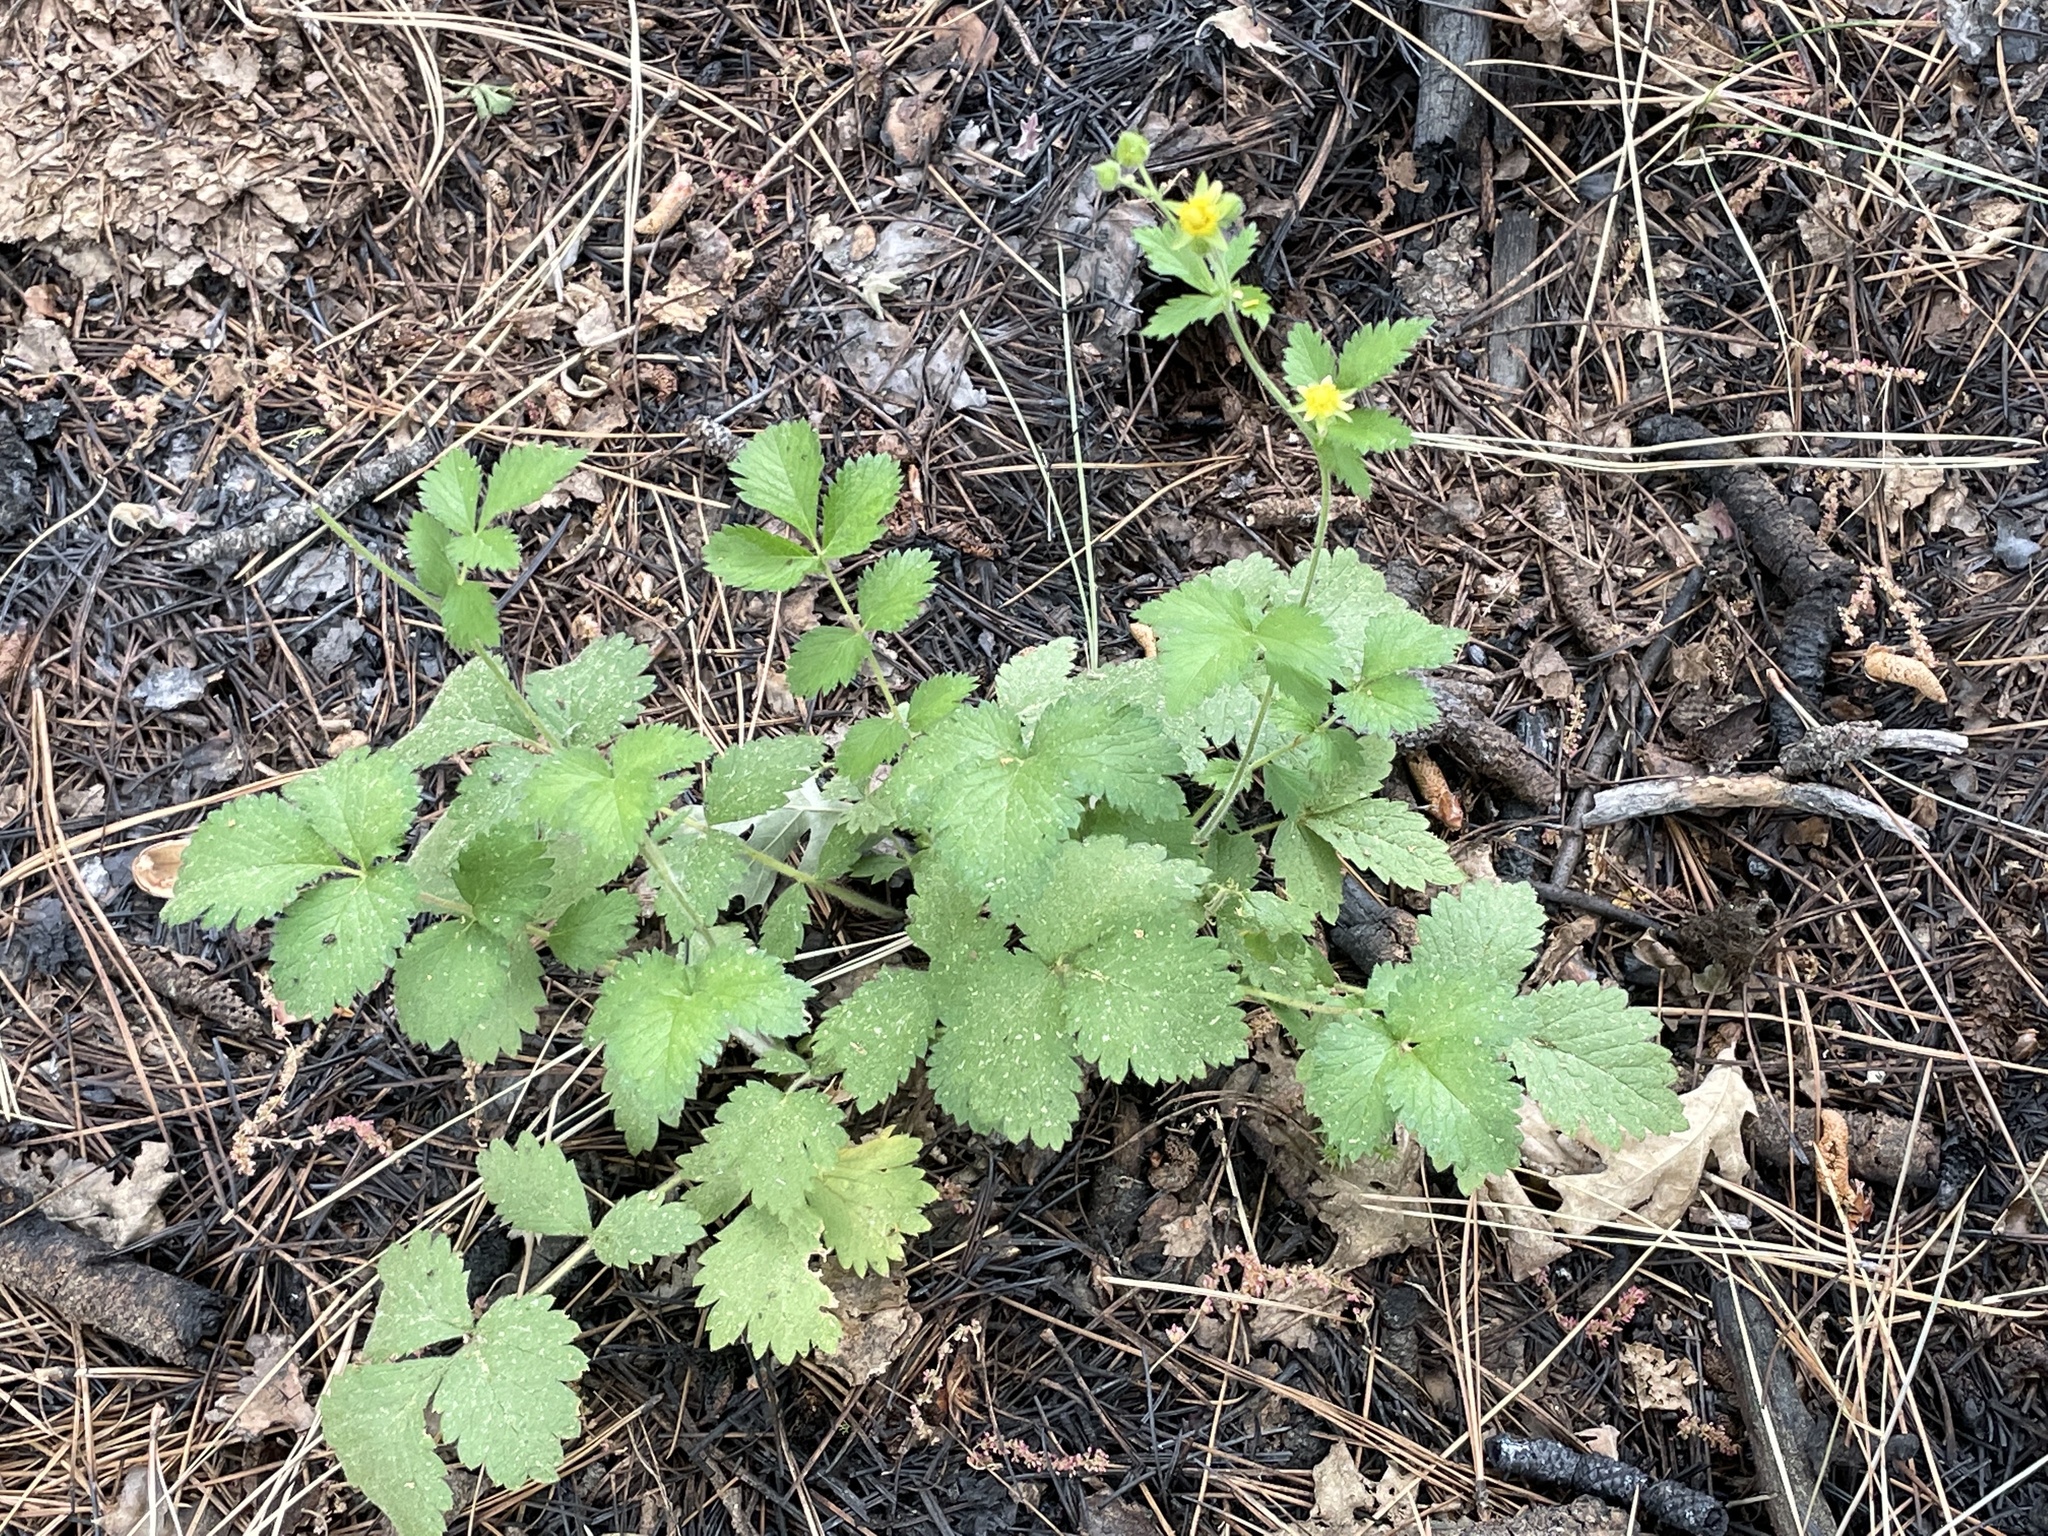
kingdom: Plantae
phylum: Tracheophyta
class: Magnoliopsida
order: Rosales
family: Rosaceae
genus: Drymocallis
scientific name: Drymocallis glandulosa
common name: Sticky cinquefoil
